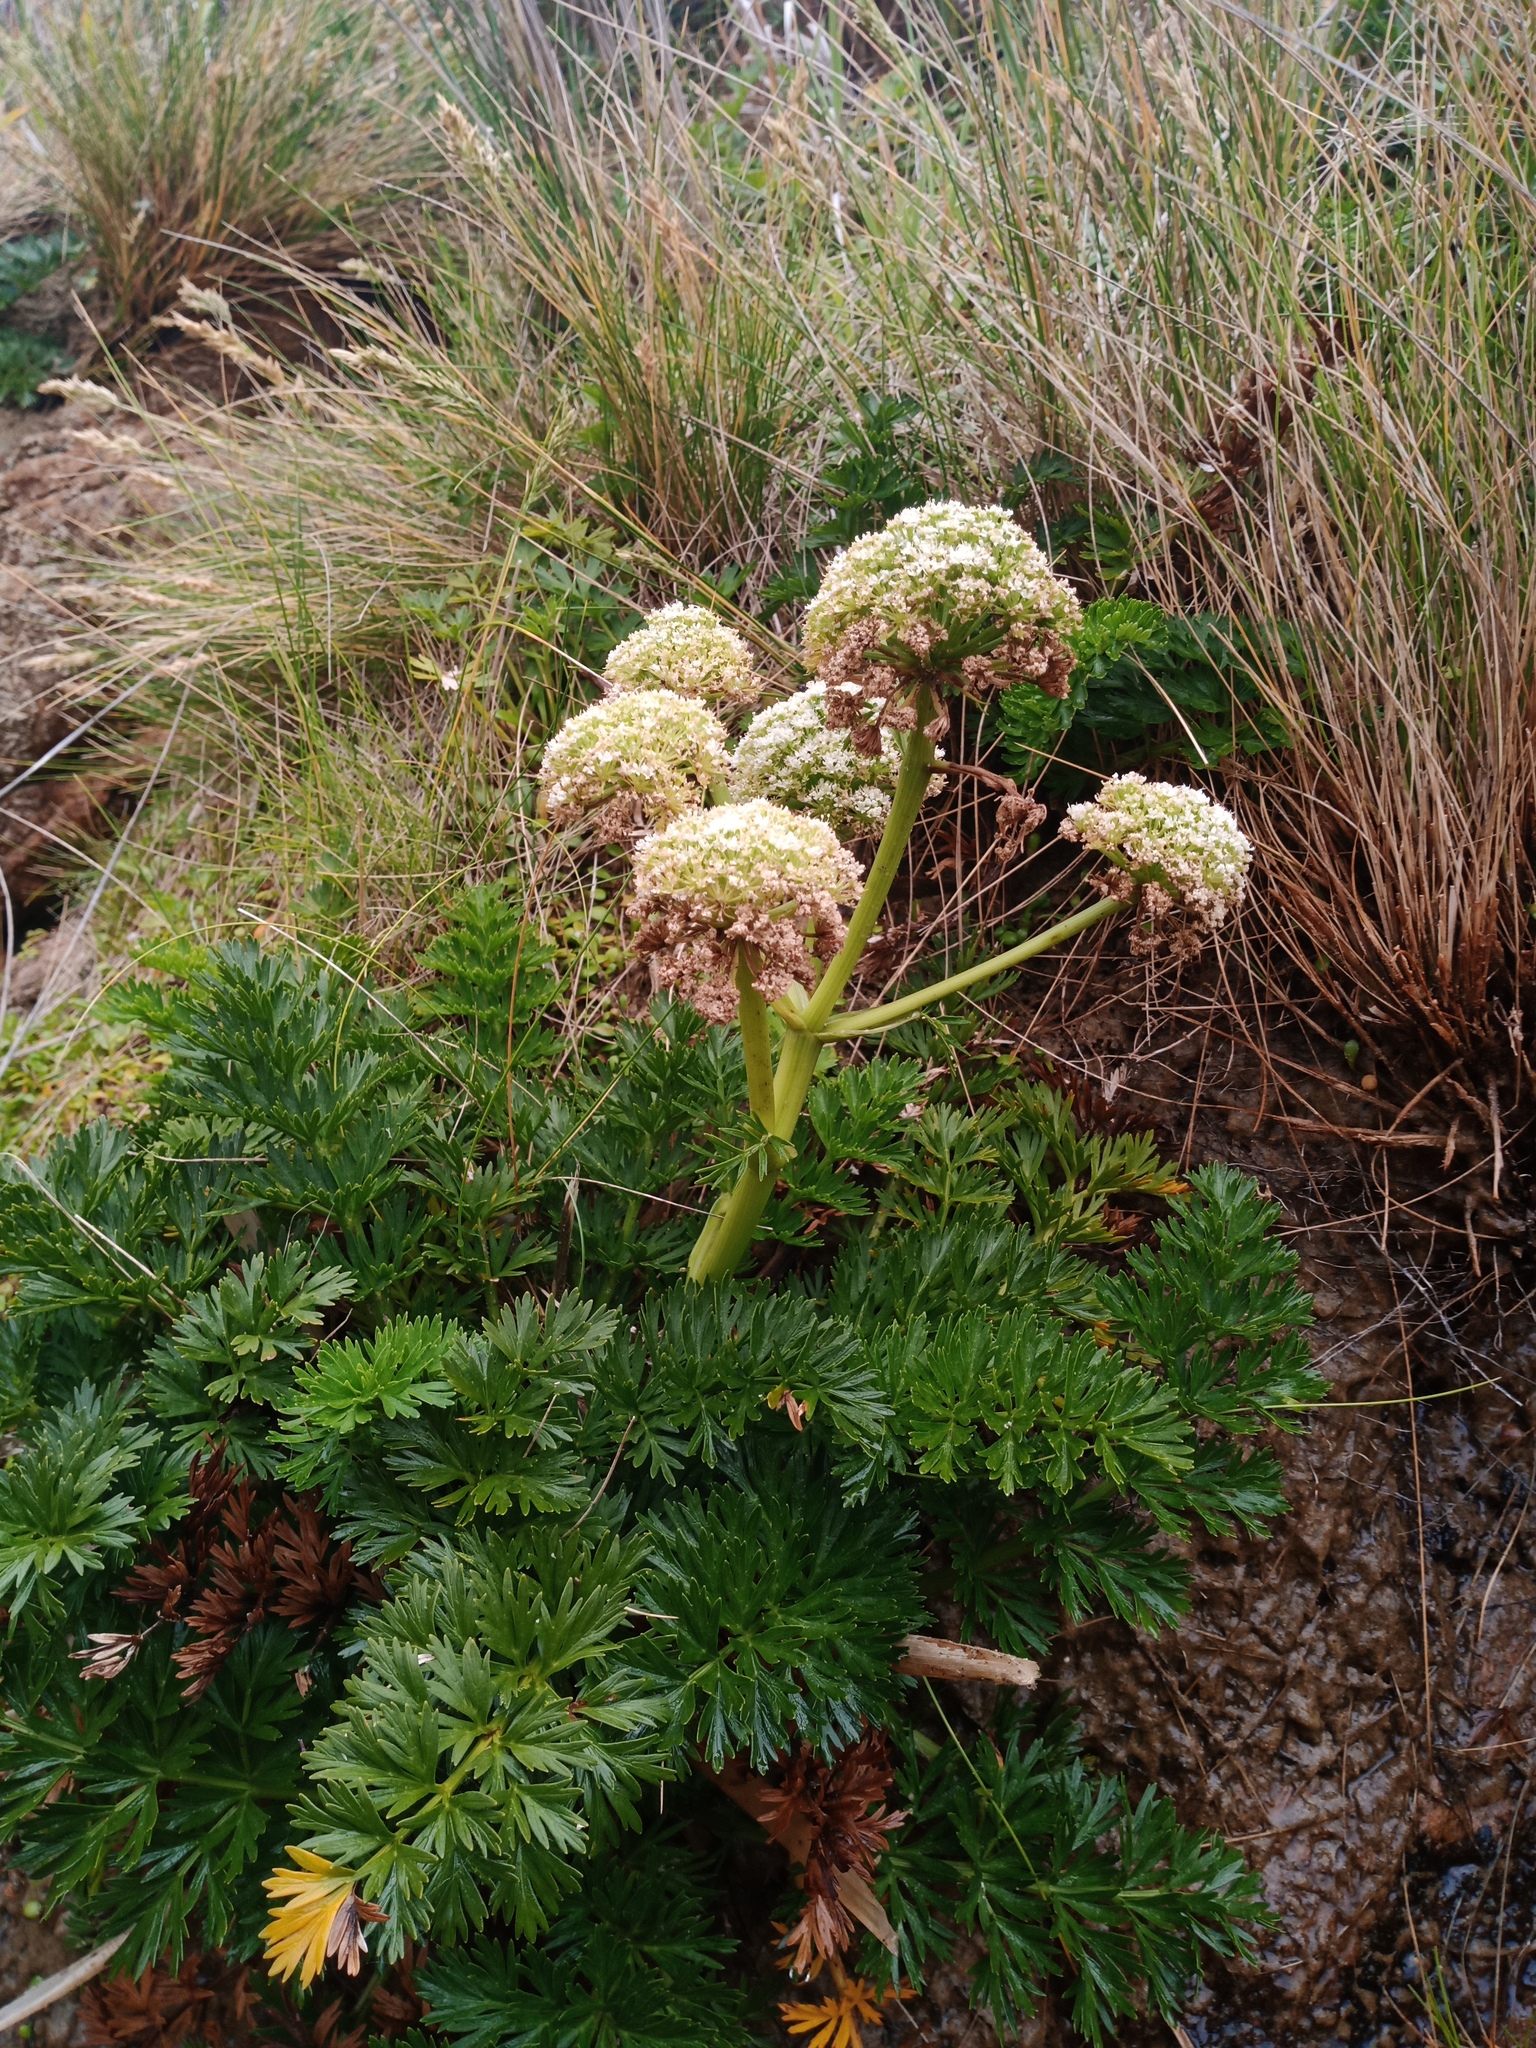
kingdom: Plantae
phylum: Tracheophyta
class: Magnoliopsida
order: Apiales
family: Apiaceae
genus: Anisotome
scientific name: Anisotome lyallii
